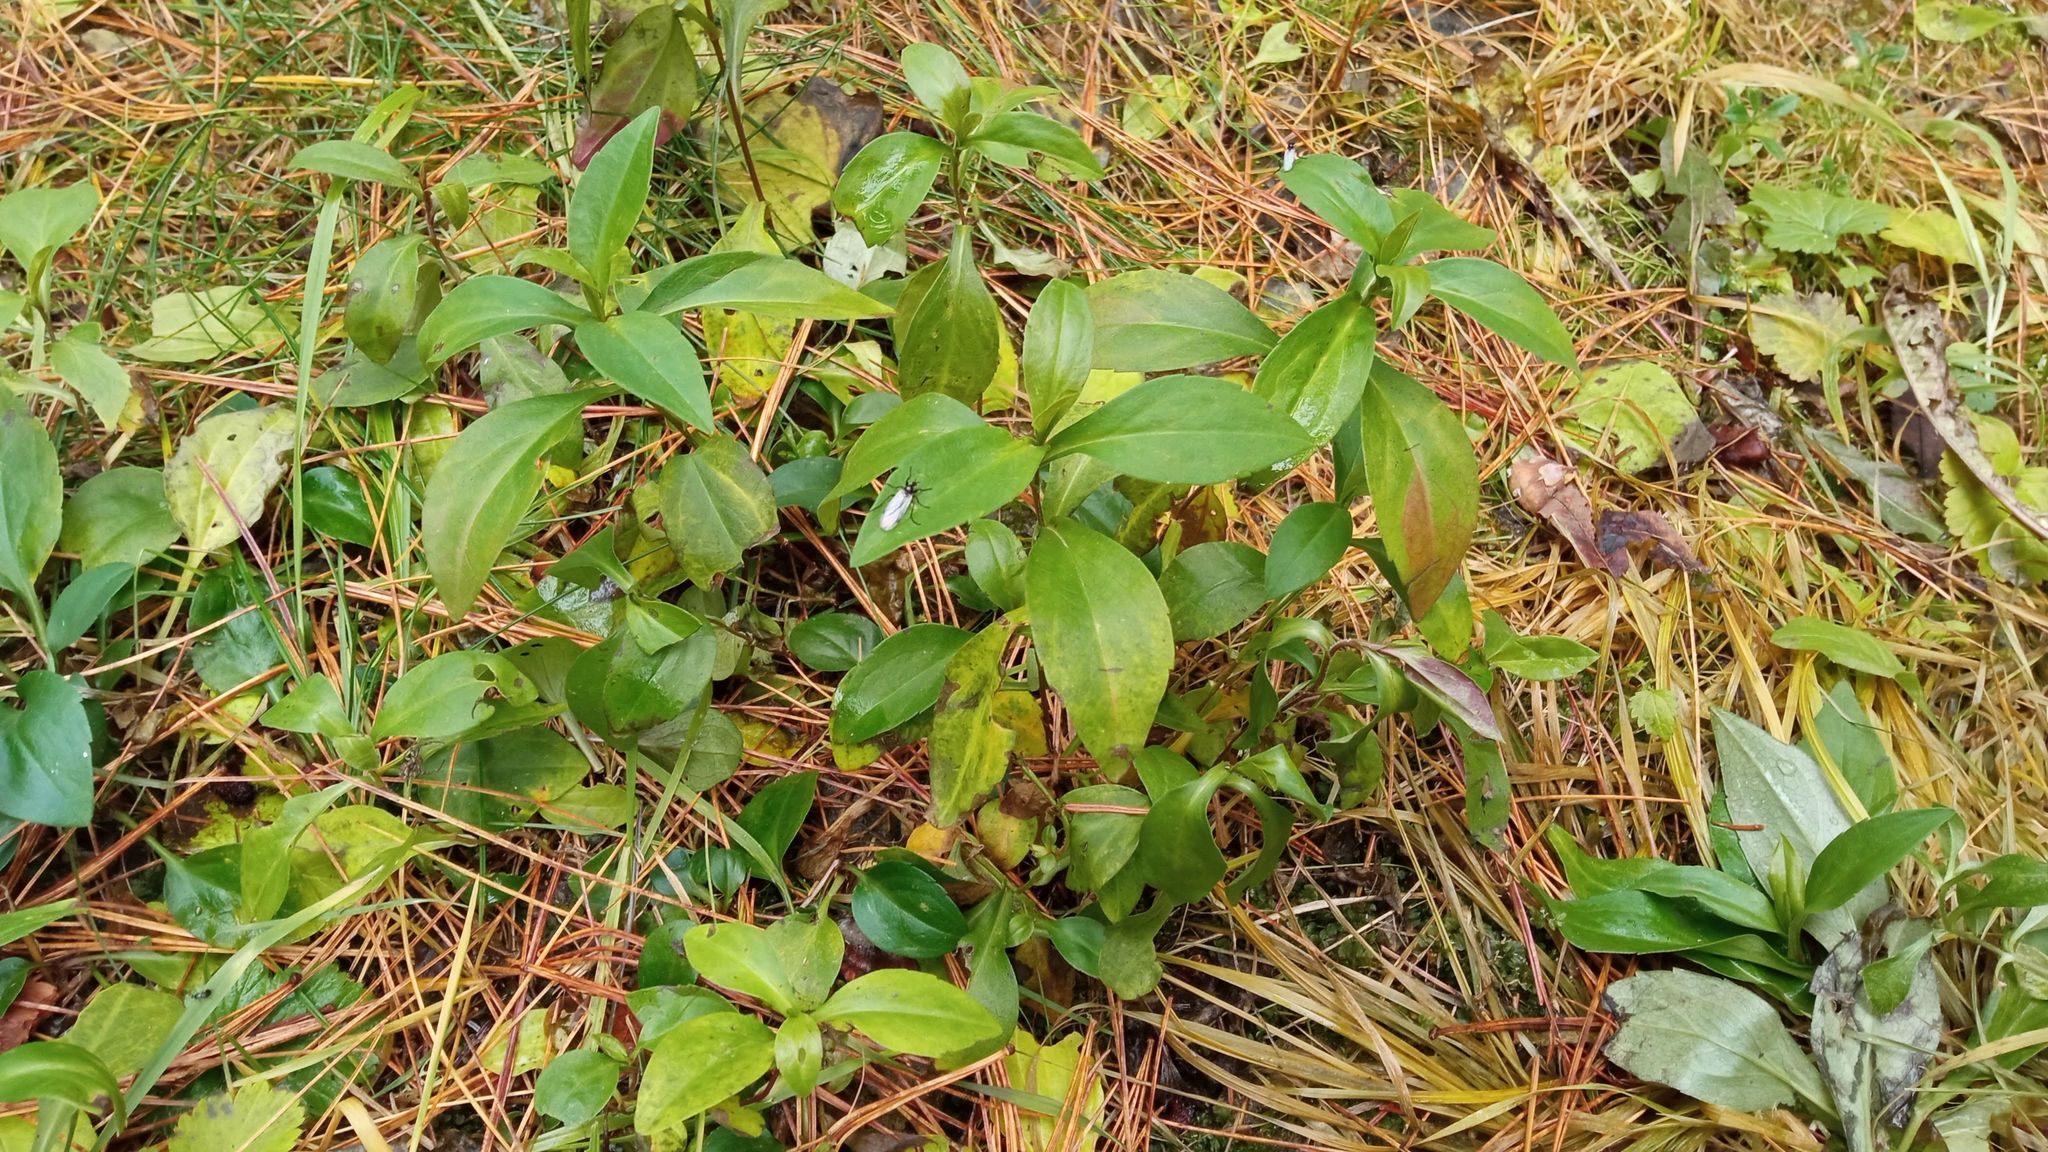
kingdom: Plantae
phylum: Tracheophyta
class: Magnoliopsida
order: Lamiales
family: Lamiaceae
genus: Prunella
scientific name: Prunella vulgaris
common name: Heal-all
